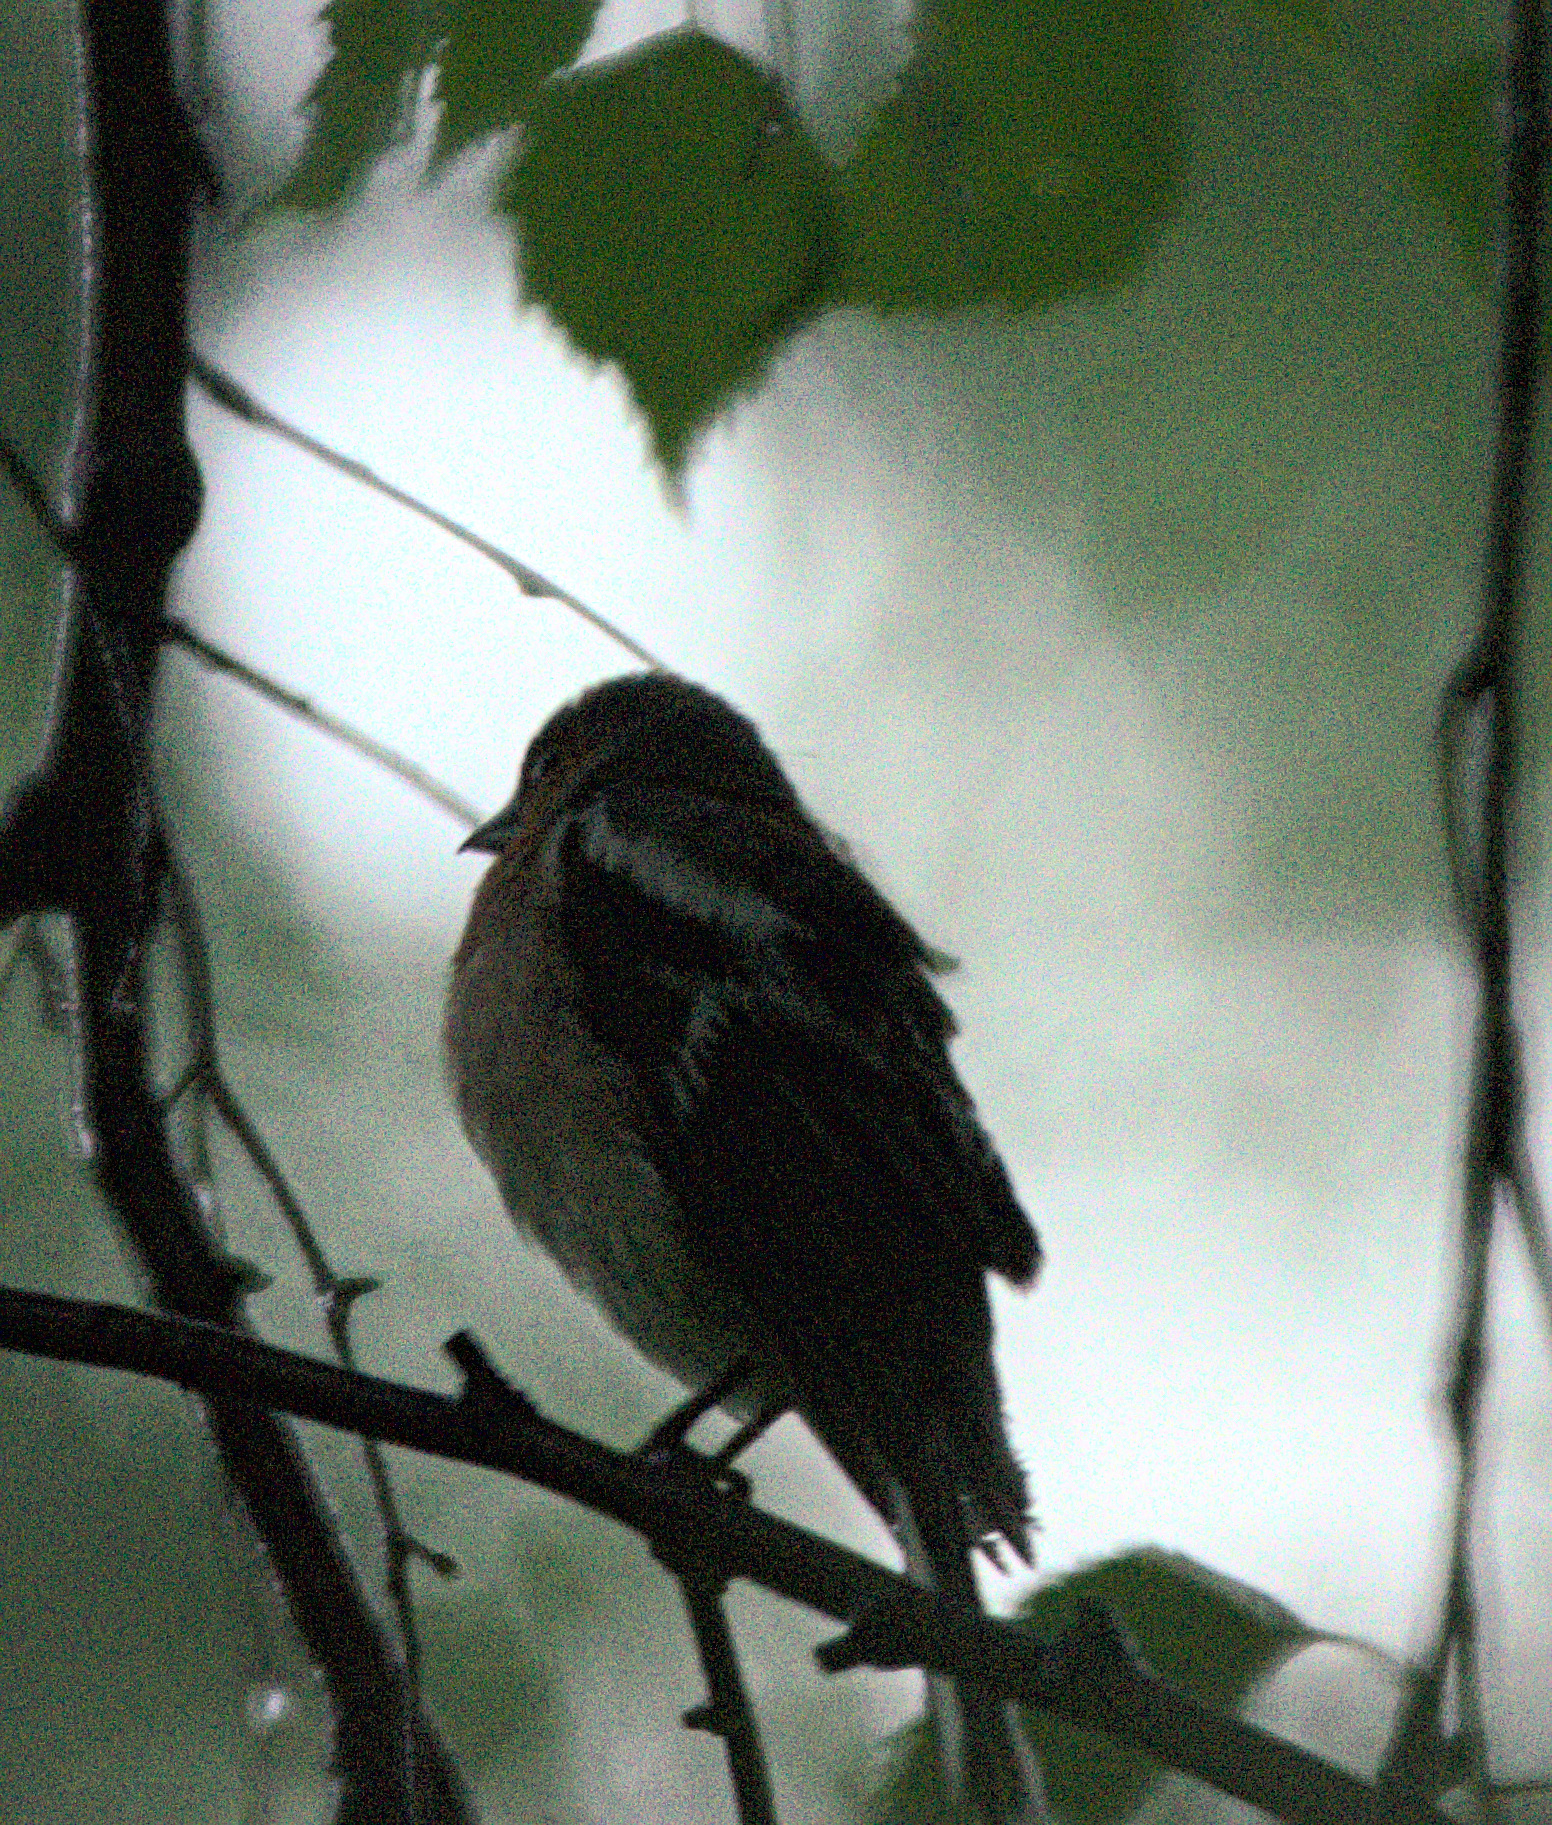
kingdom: Animalia
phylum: Chordata
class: Aves
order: Passeriformes
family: Fringillidae
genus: Fringilla
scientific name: Fringilla coelebs
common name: Common chaffinch
